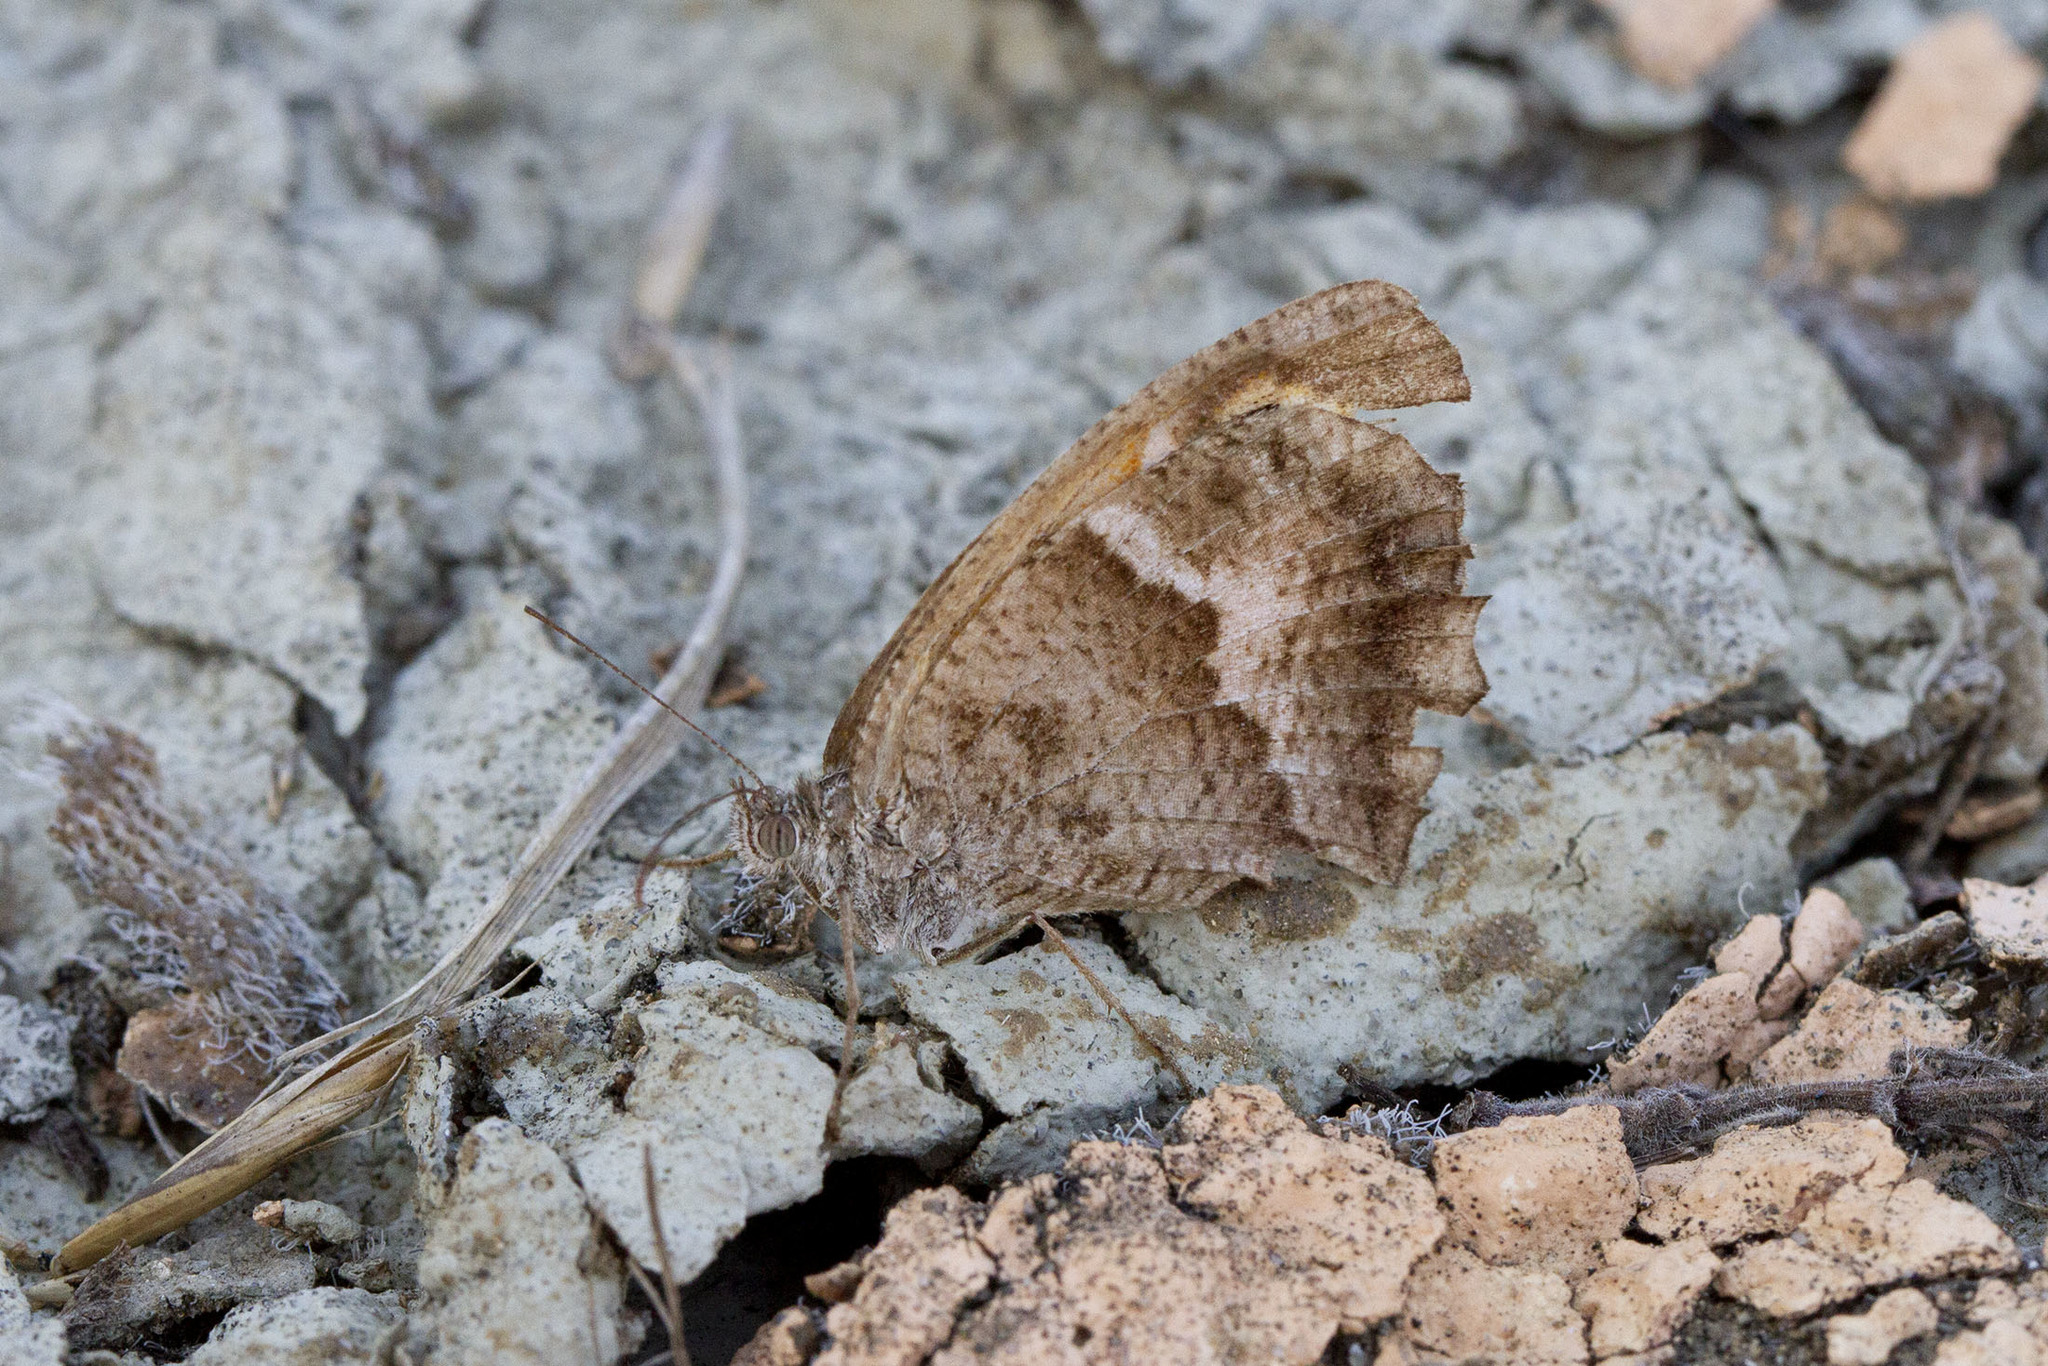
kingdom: Animalia
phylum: Arthropoda
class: Insecta
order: Lepidoptera
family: Nymphalidae
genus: Pyronia
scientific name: Pyronia cecilia
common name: Southern gatekeeper
